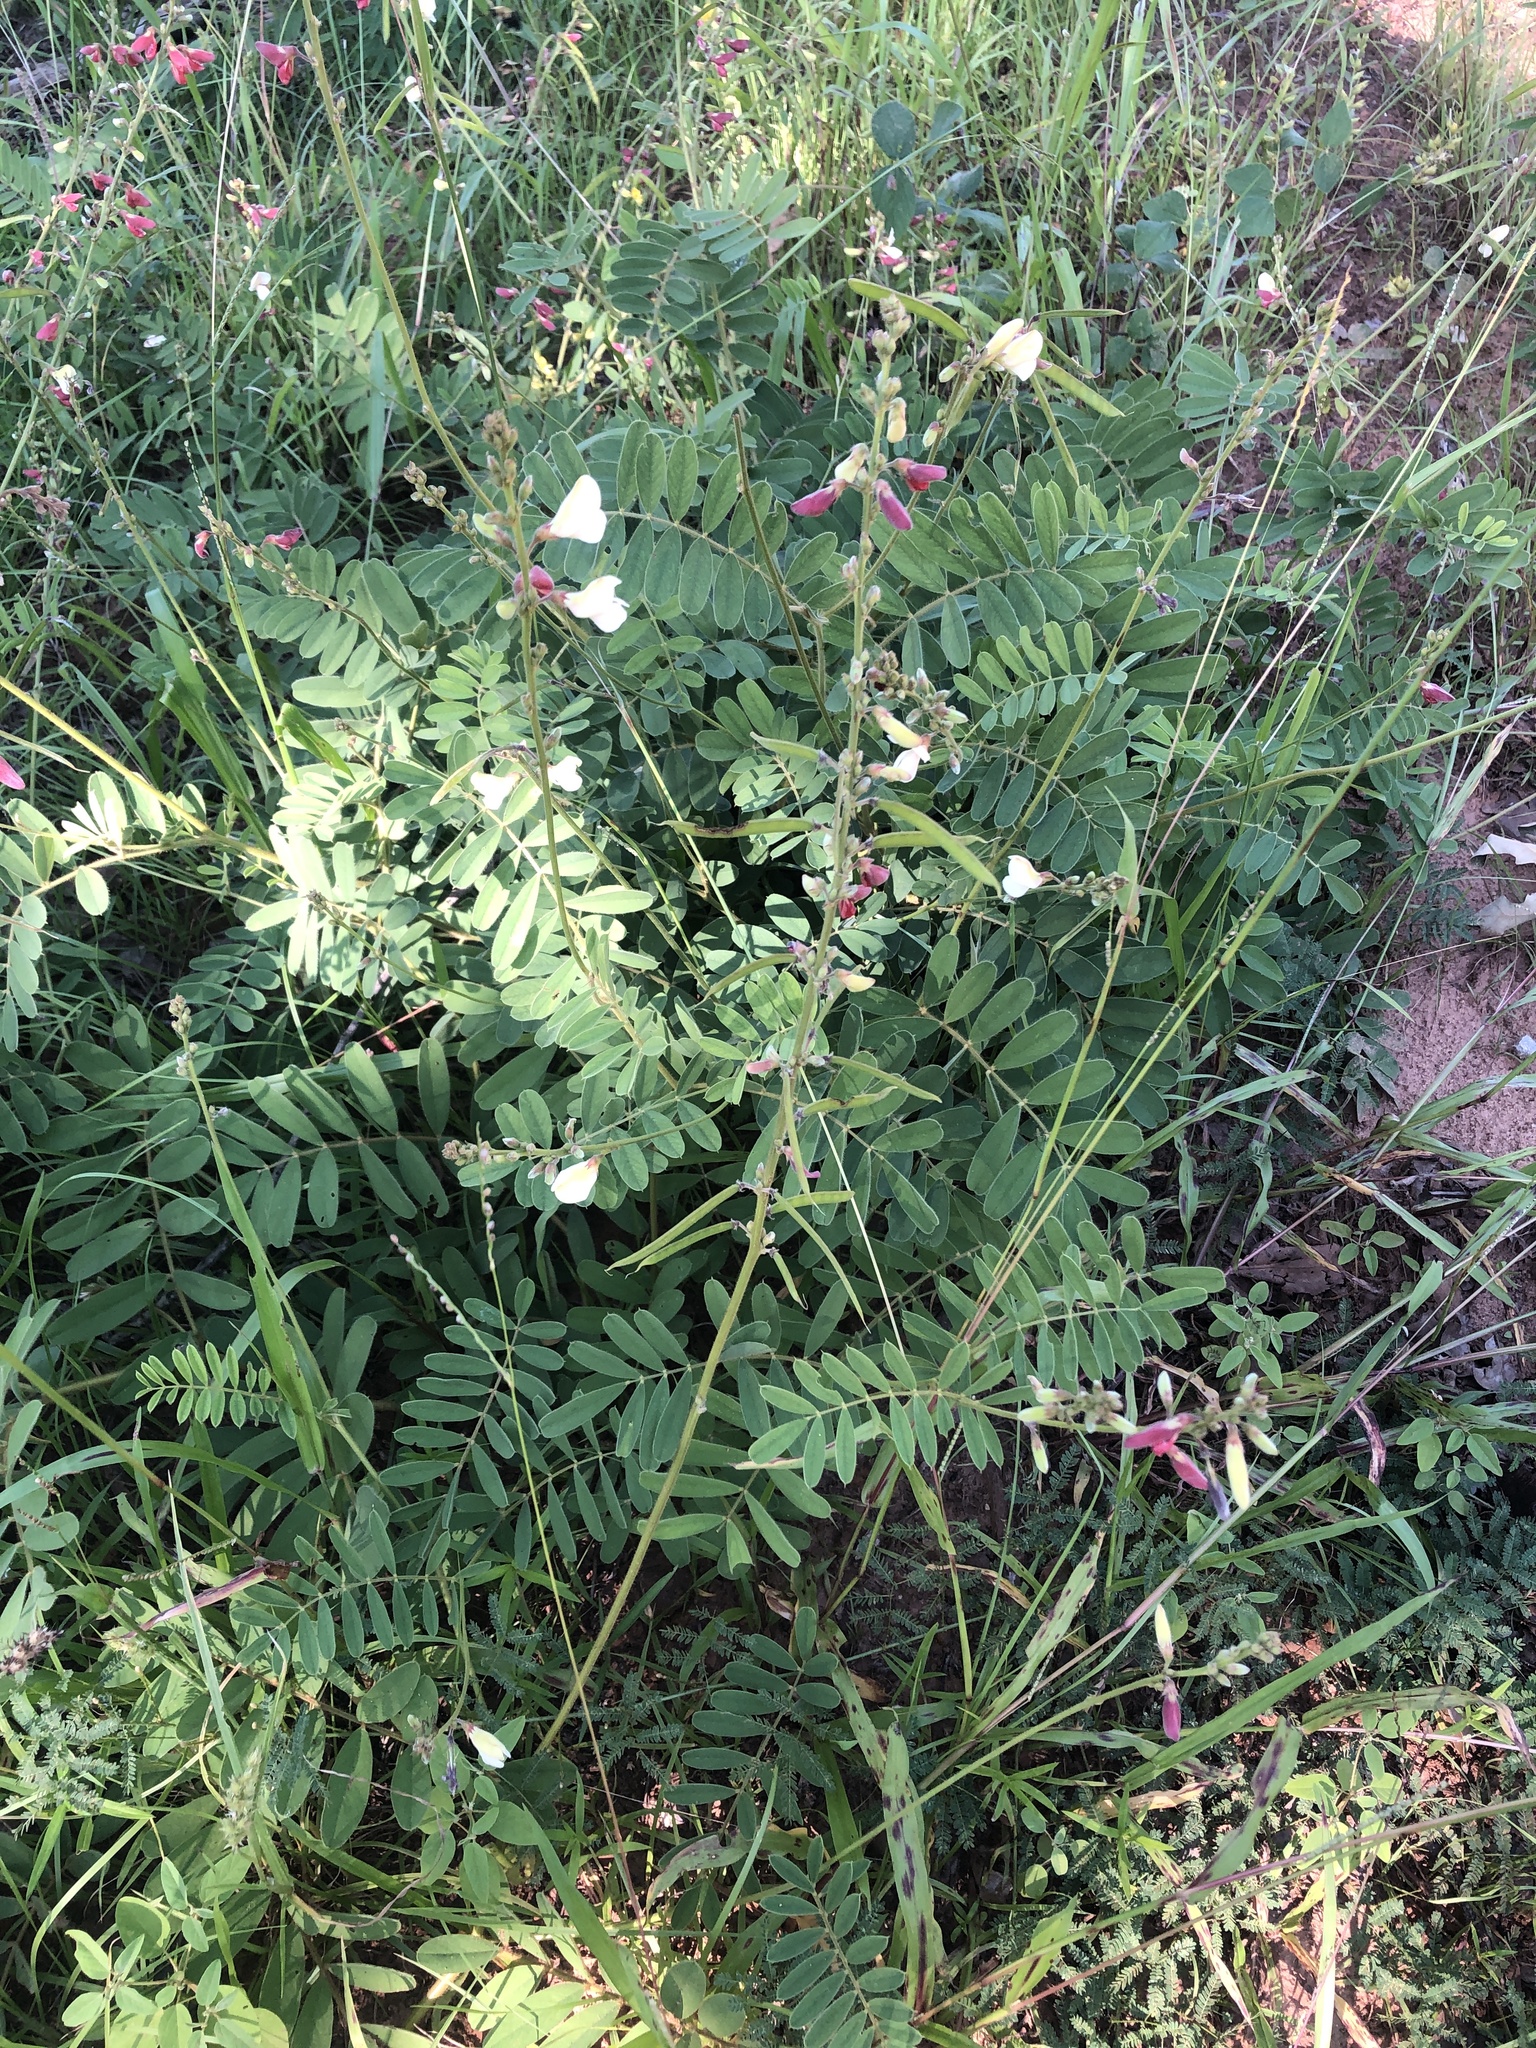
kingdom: Plantae
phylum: Tracheophyta
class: Magnoliopsida
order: Fabales
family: Fabaceae
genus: Tephrosia
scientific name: Tephrosia onobrychoides
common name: Multi-bloom hoary-pea
